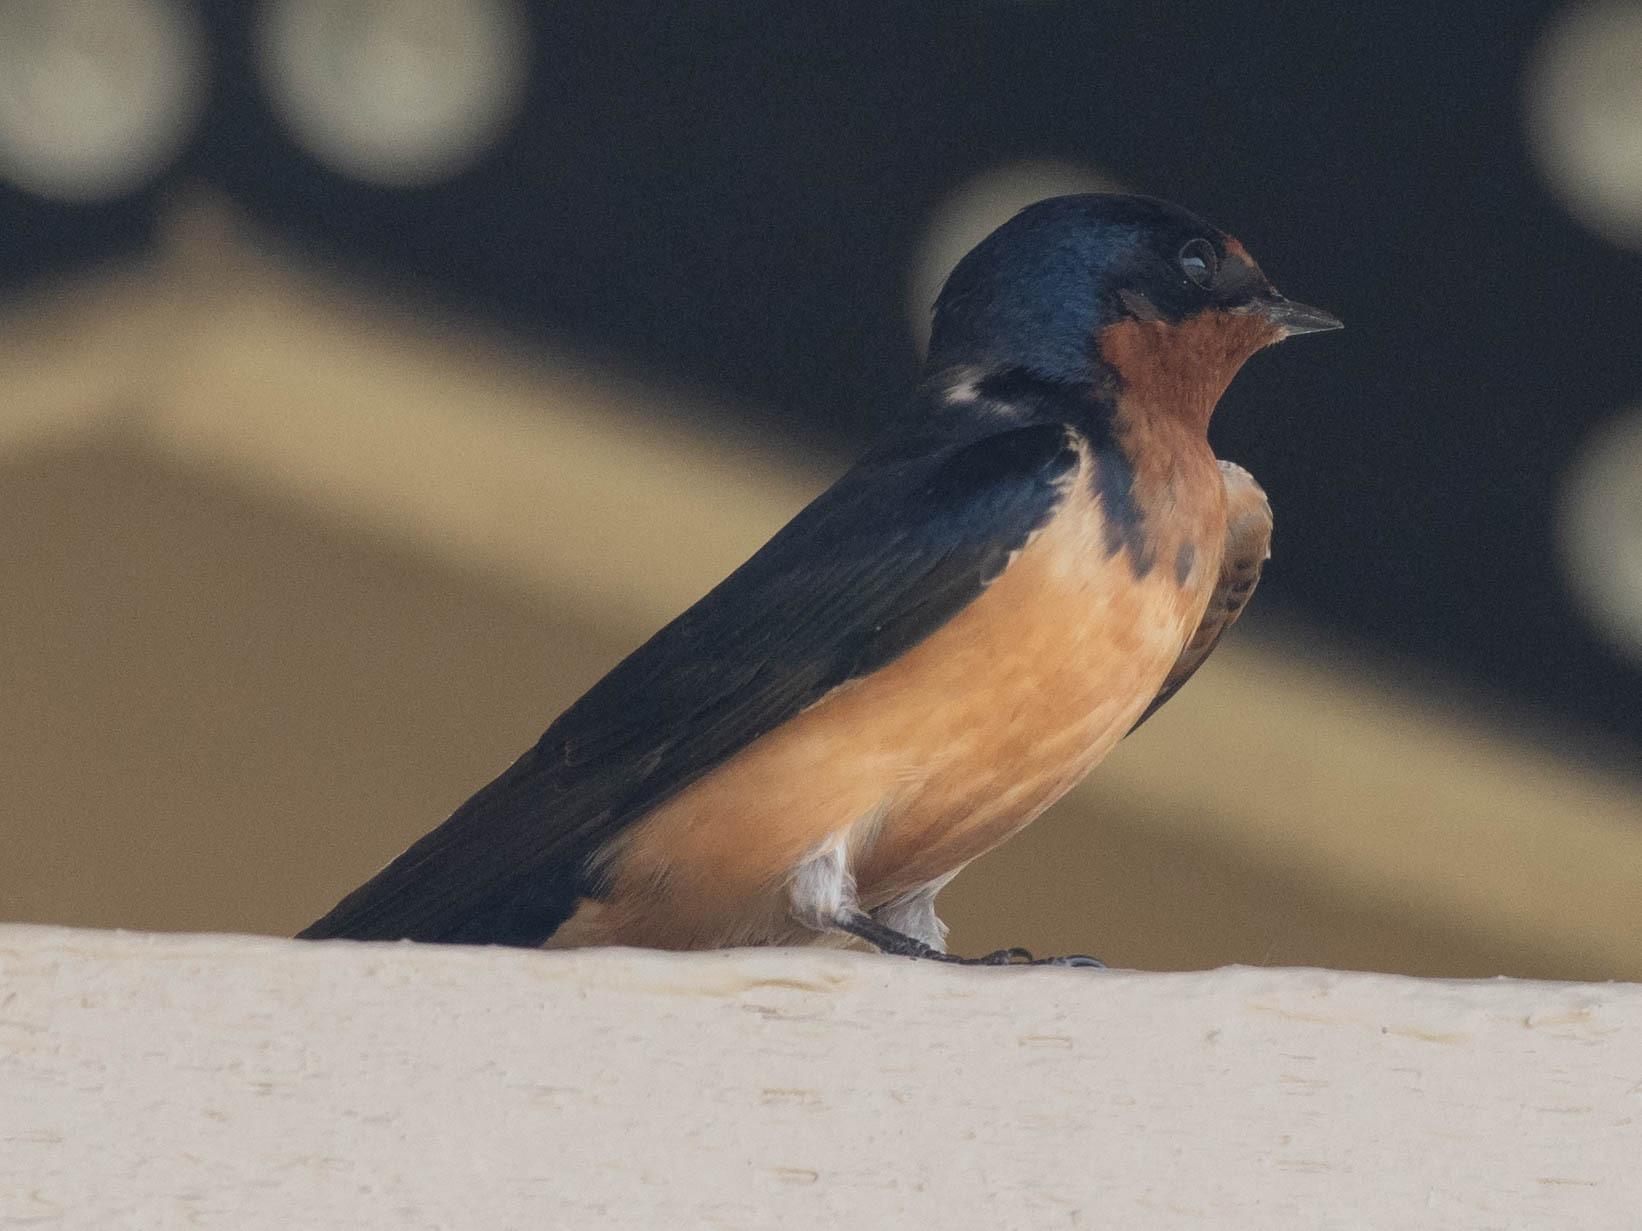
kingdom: Animalia
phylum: Chordata
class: Aves
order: Passeriformes
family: Hirundinidae
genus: Hirundo
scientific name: Hirundo rustica
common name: Barn swallow
